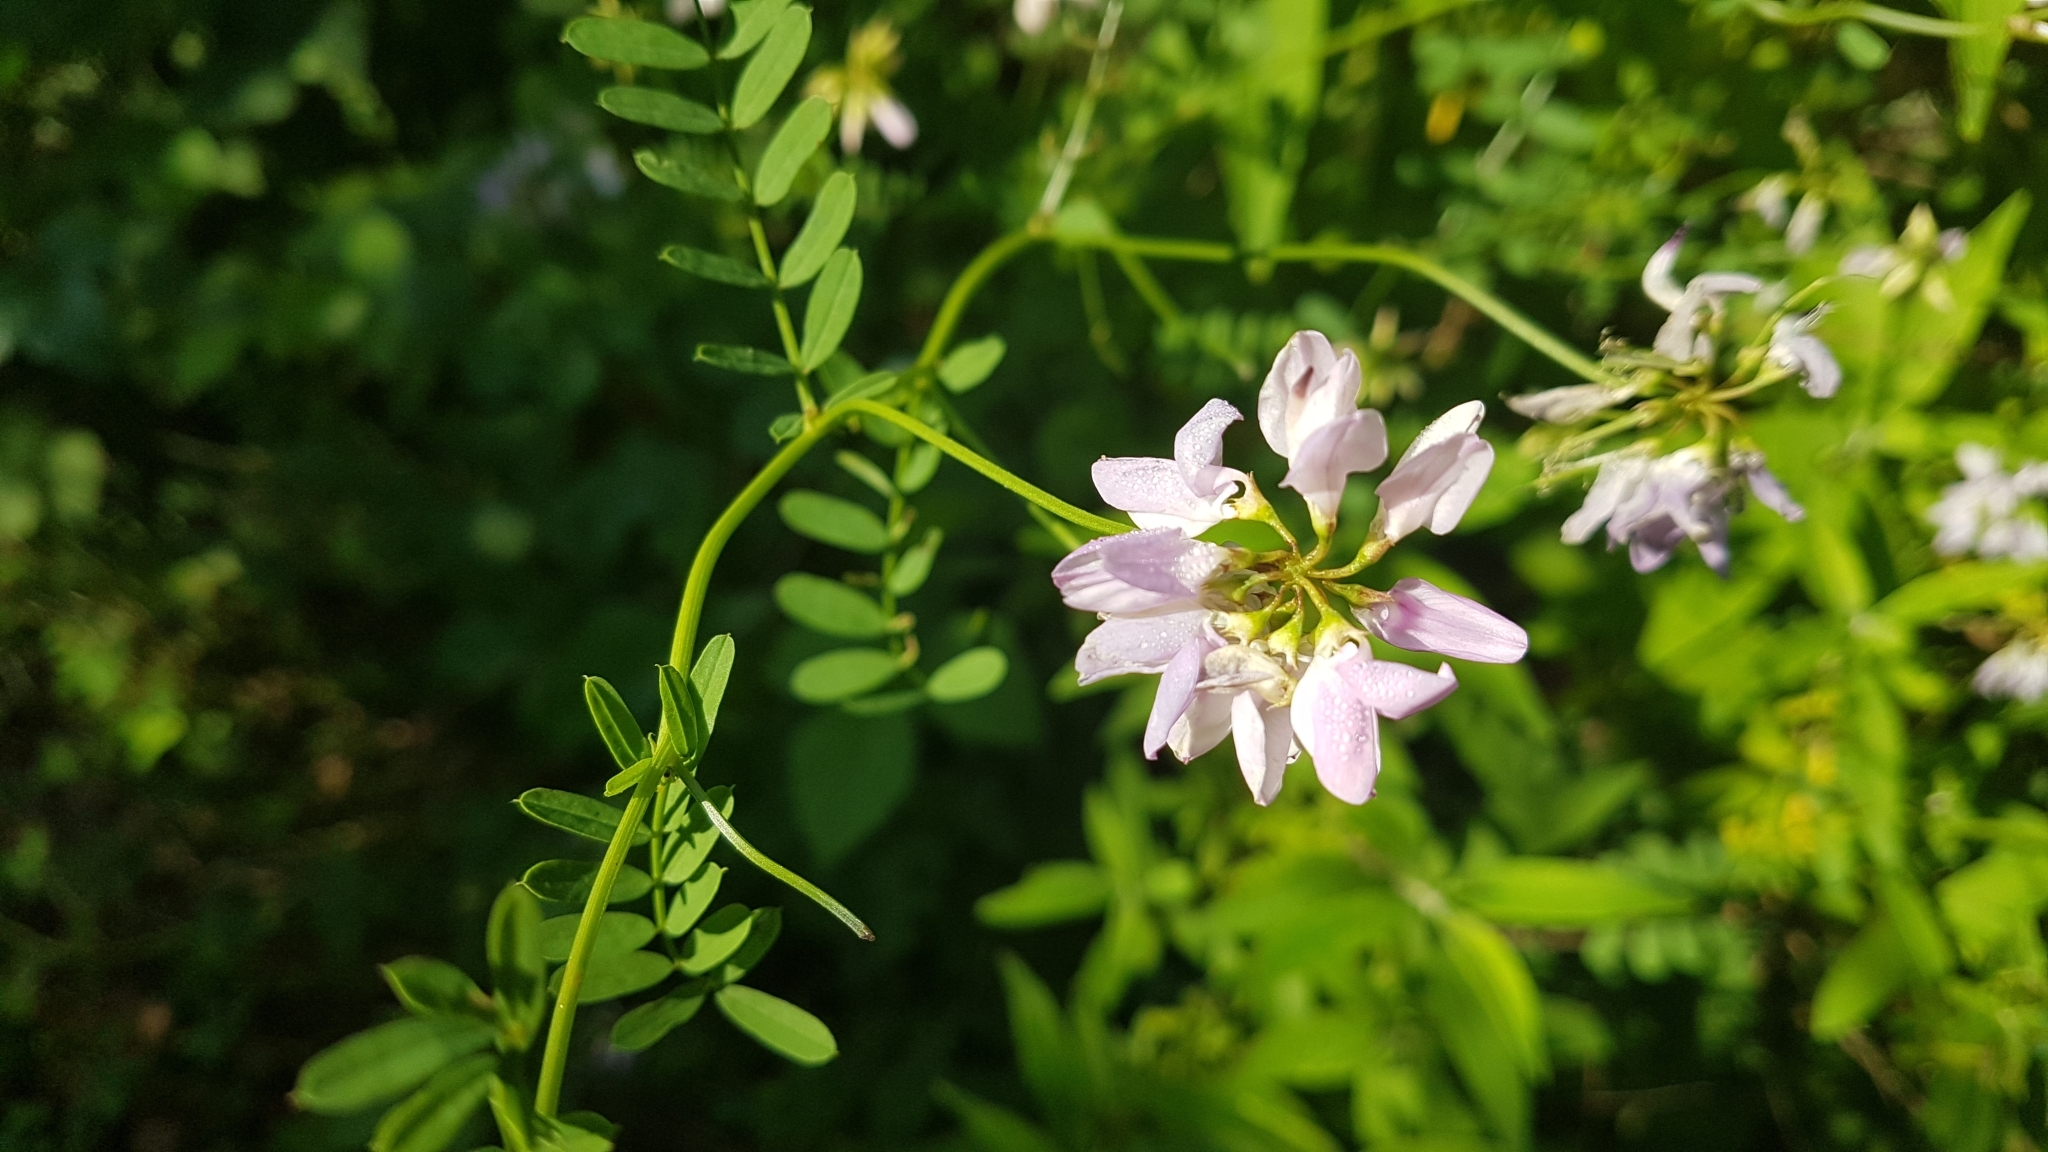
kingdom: Plantae
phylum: Tracheophyta
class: Magnoliopsida
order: Fabales
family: Fabaceae
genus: Coronilla
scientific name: Coronilla varia
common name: Crownvetch
